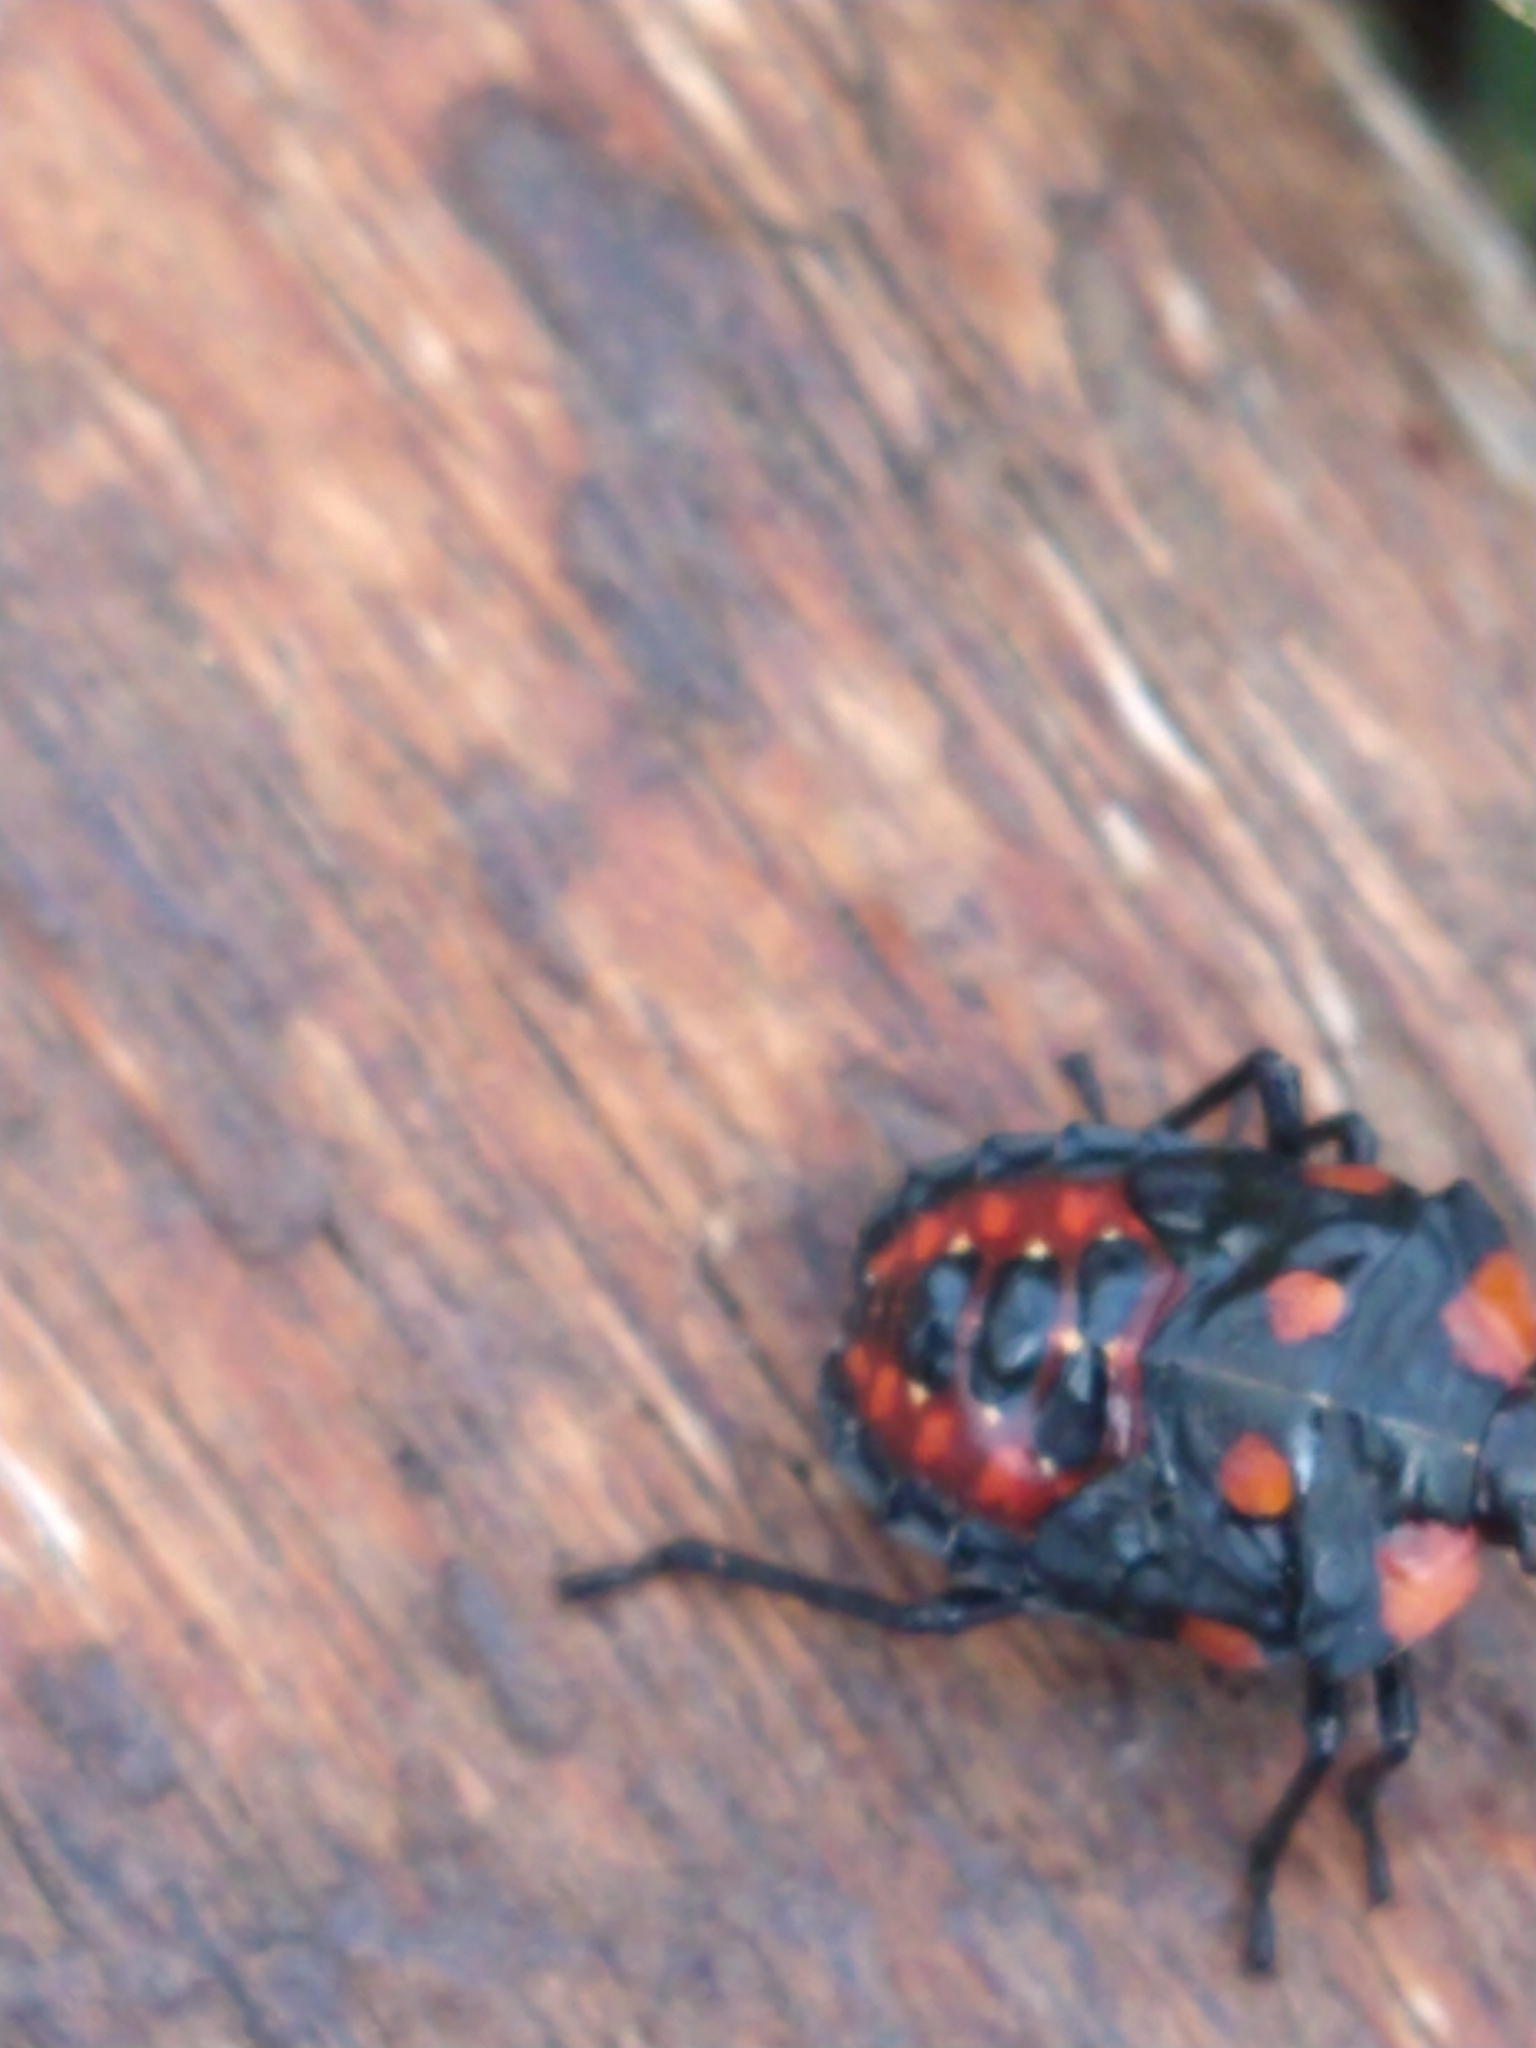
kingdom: Animalia
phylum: Arthropoda
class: Insecta
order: Hemiptera
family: Acanthosomatidae
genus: Phorbanta
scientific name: Phorbanta variabilis
